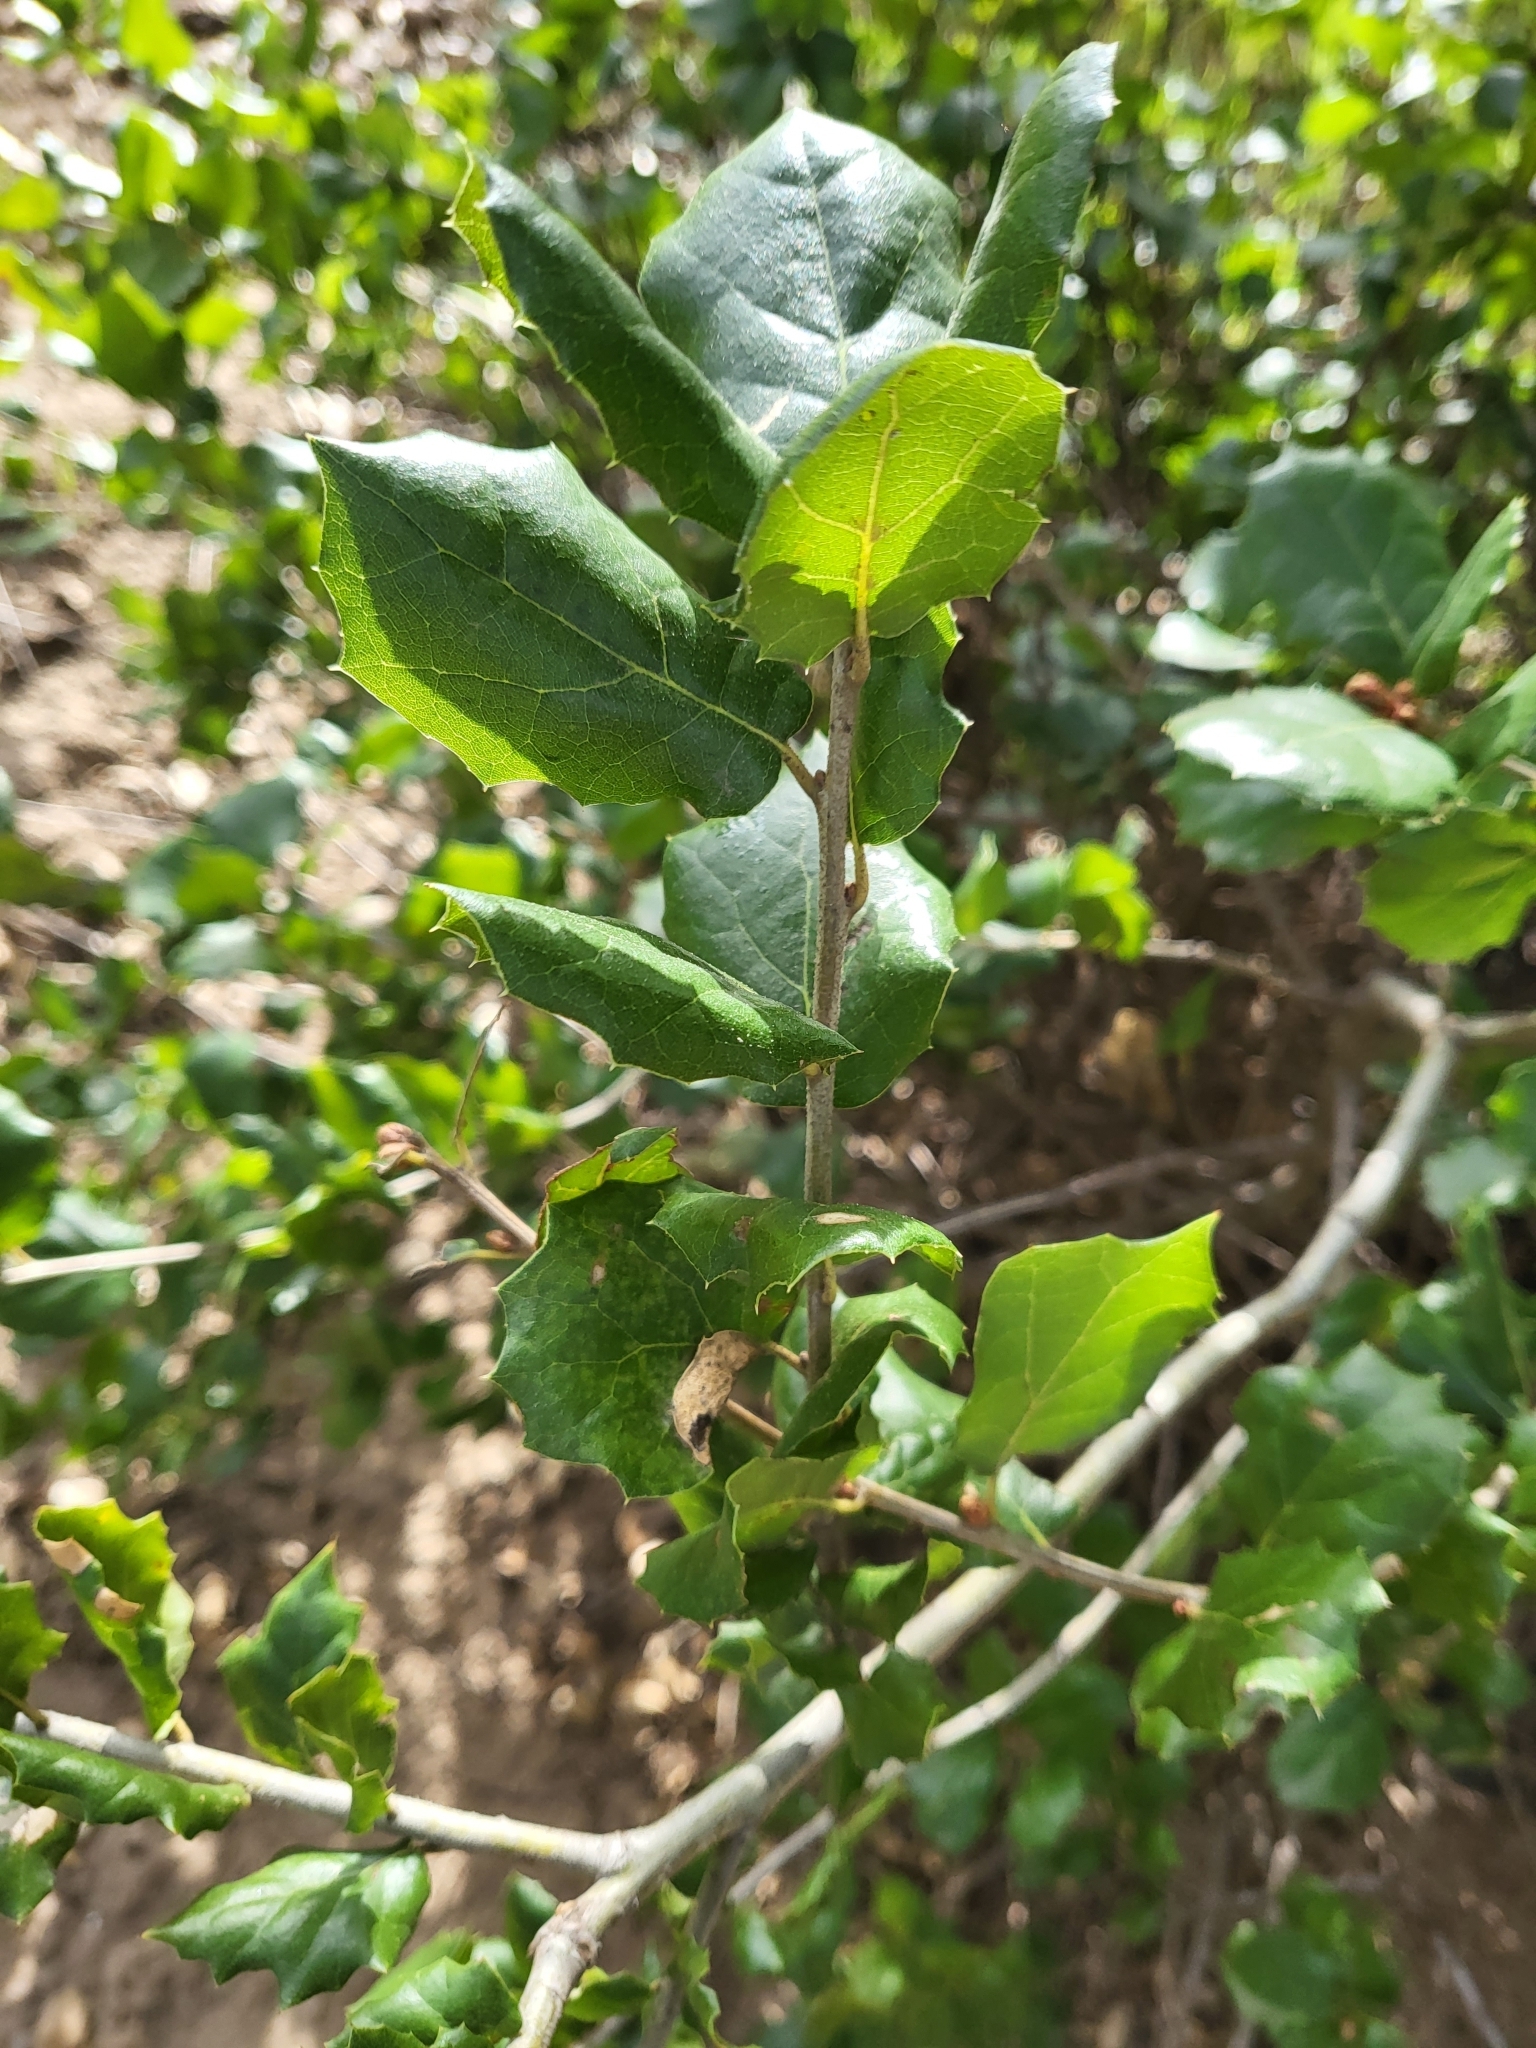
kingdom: Animalia
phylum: Arthropoda
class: Insecta
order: Hymenoptera
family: Cynipidae
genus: Amphibolips
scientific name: Amphibolips quercuspomiformis
